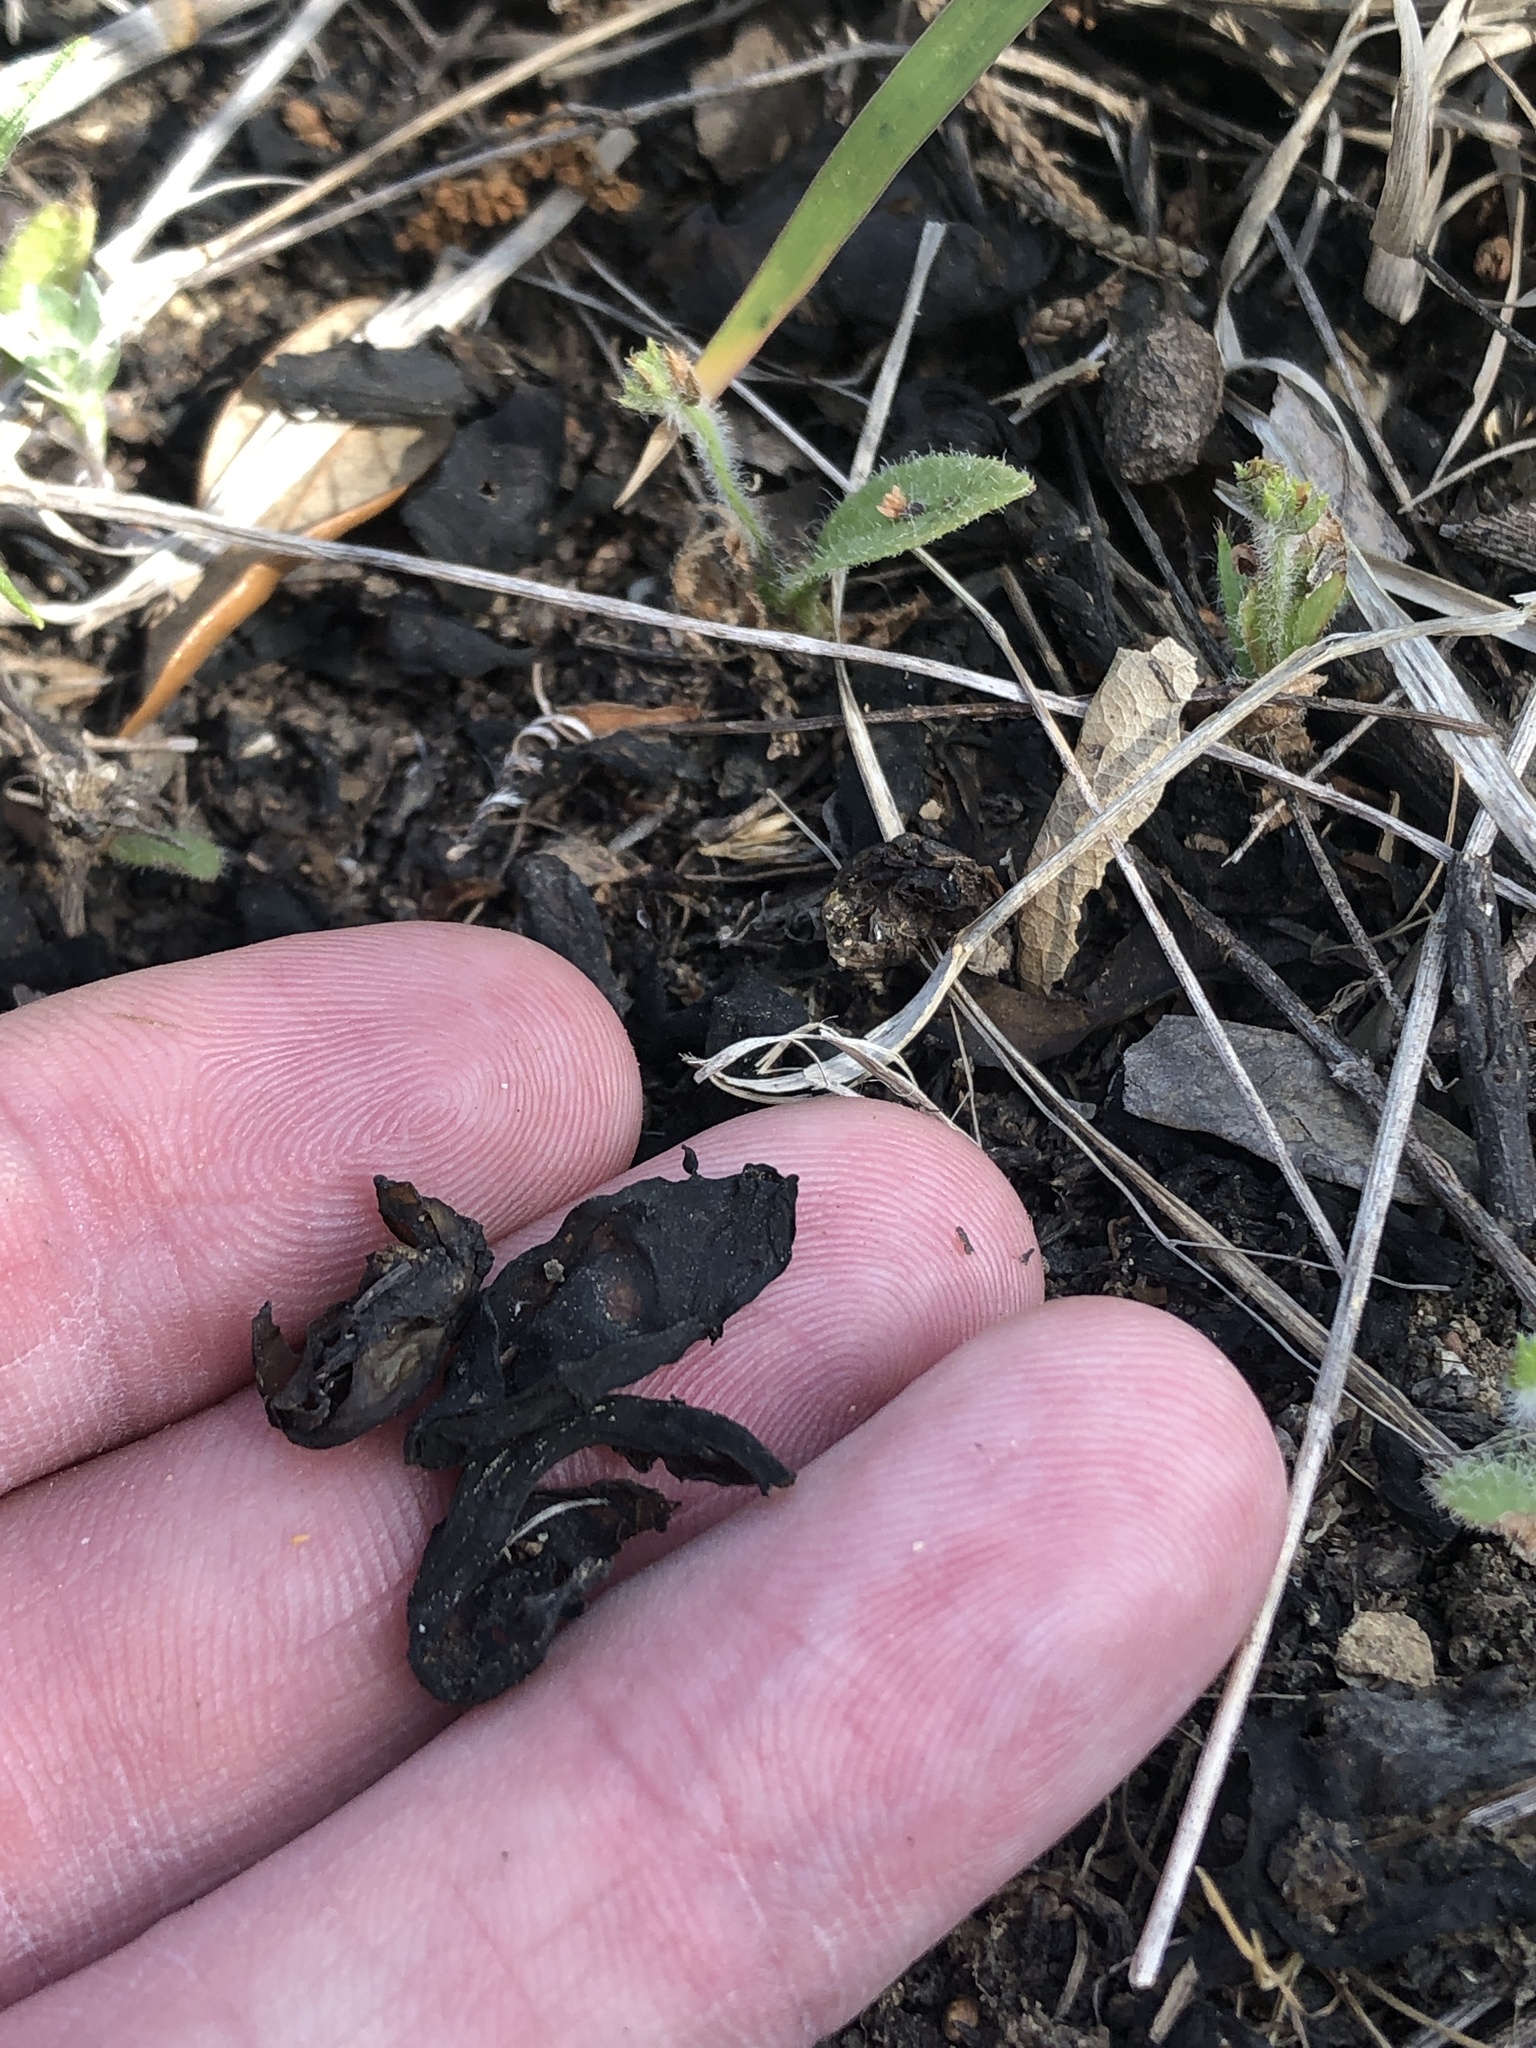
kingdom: Bacteria
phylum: Cyanobacteria
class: Cyanobacteriia
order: Cyanobacteriales
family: Nostocaceae
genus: Nostoc
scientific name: Nostoc commune
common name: Star jelly
